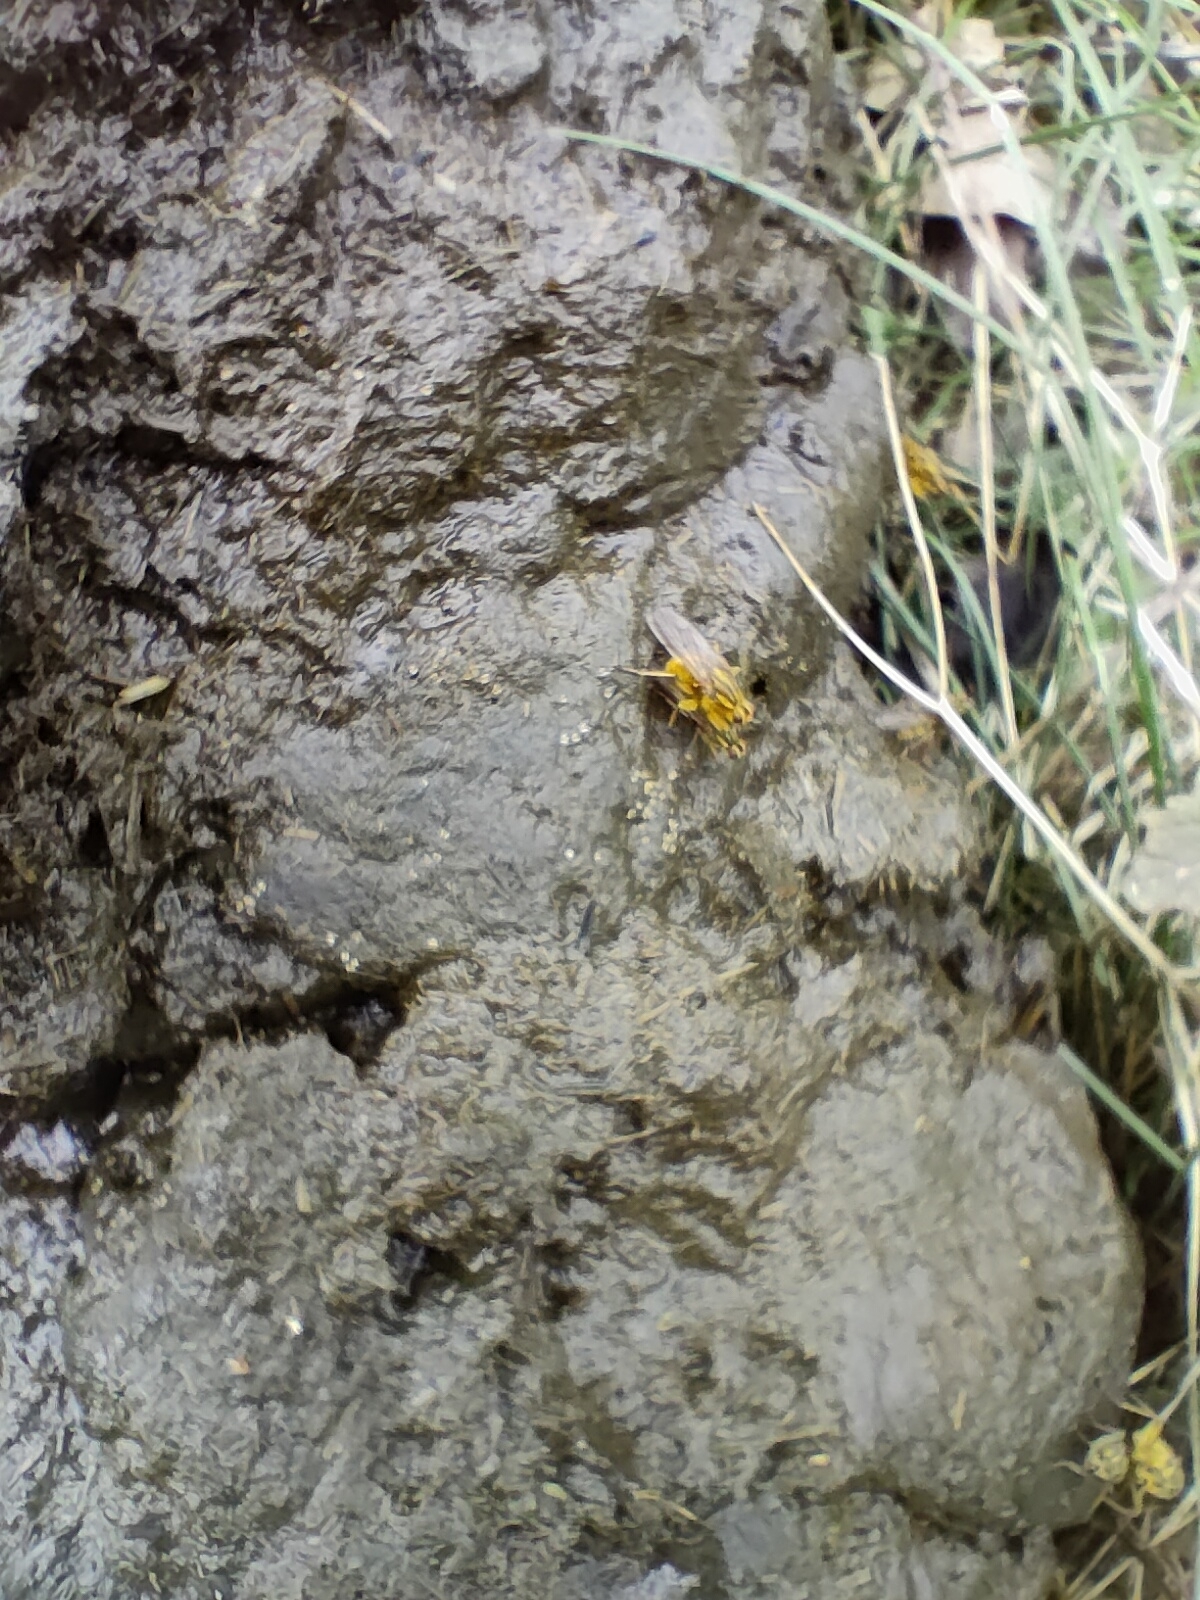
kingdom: Animalia
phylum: Arthropoda
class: Insecta
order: Diptera
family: Scathophagidae
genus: Scathophaga
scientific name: Scathophaga stercoraria
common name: Yellow dung fly
